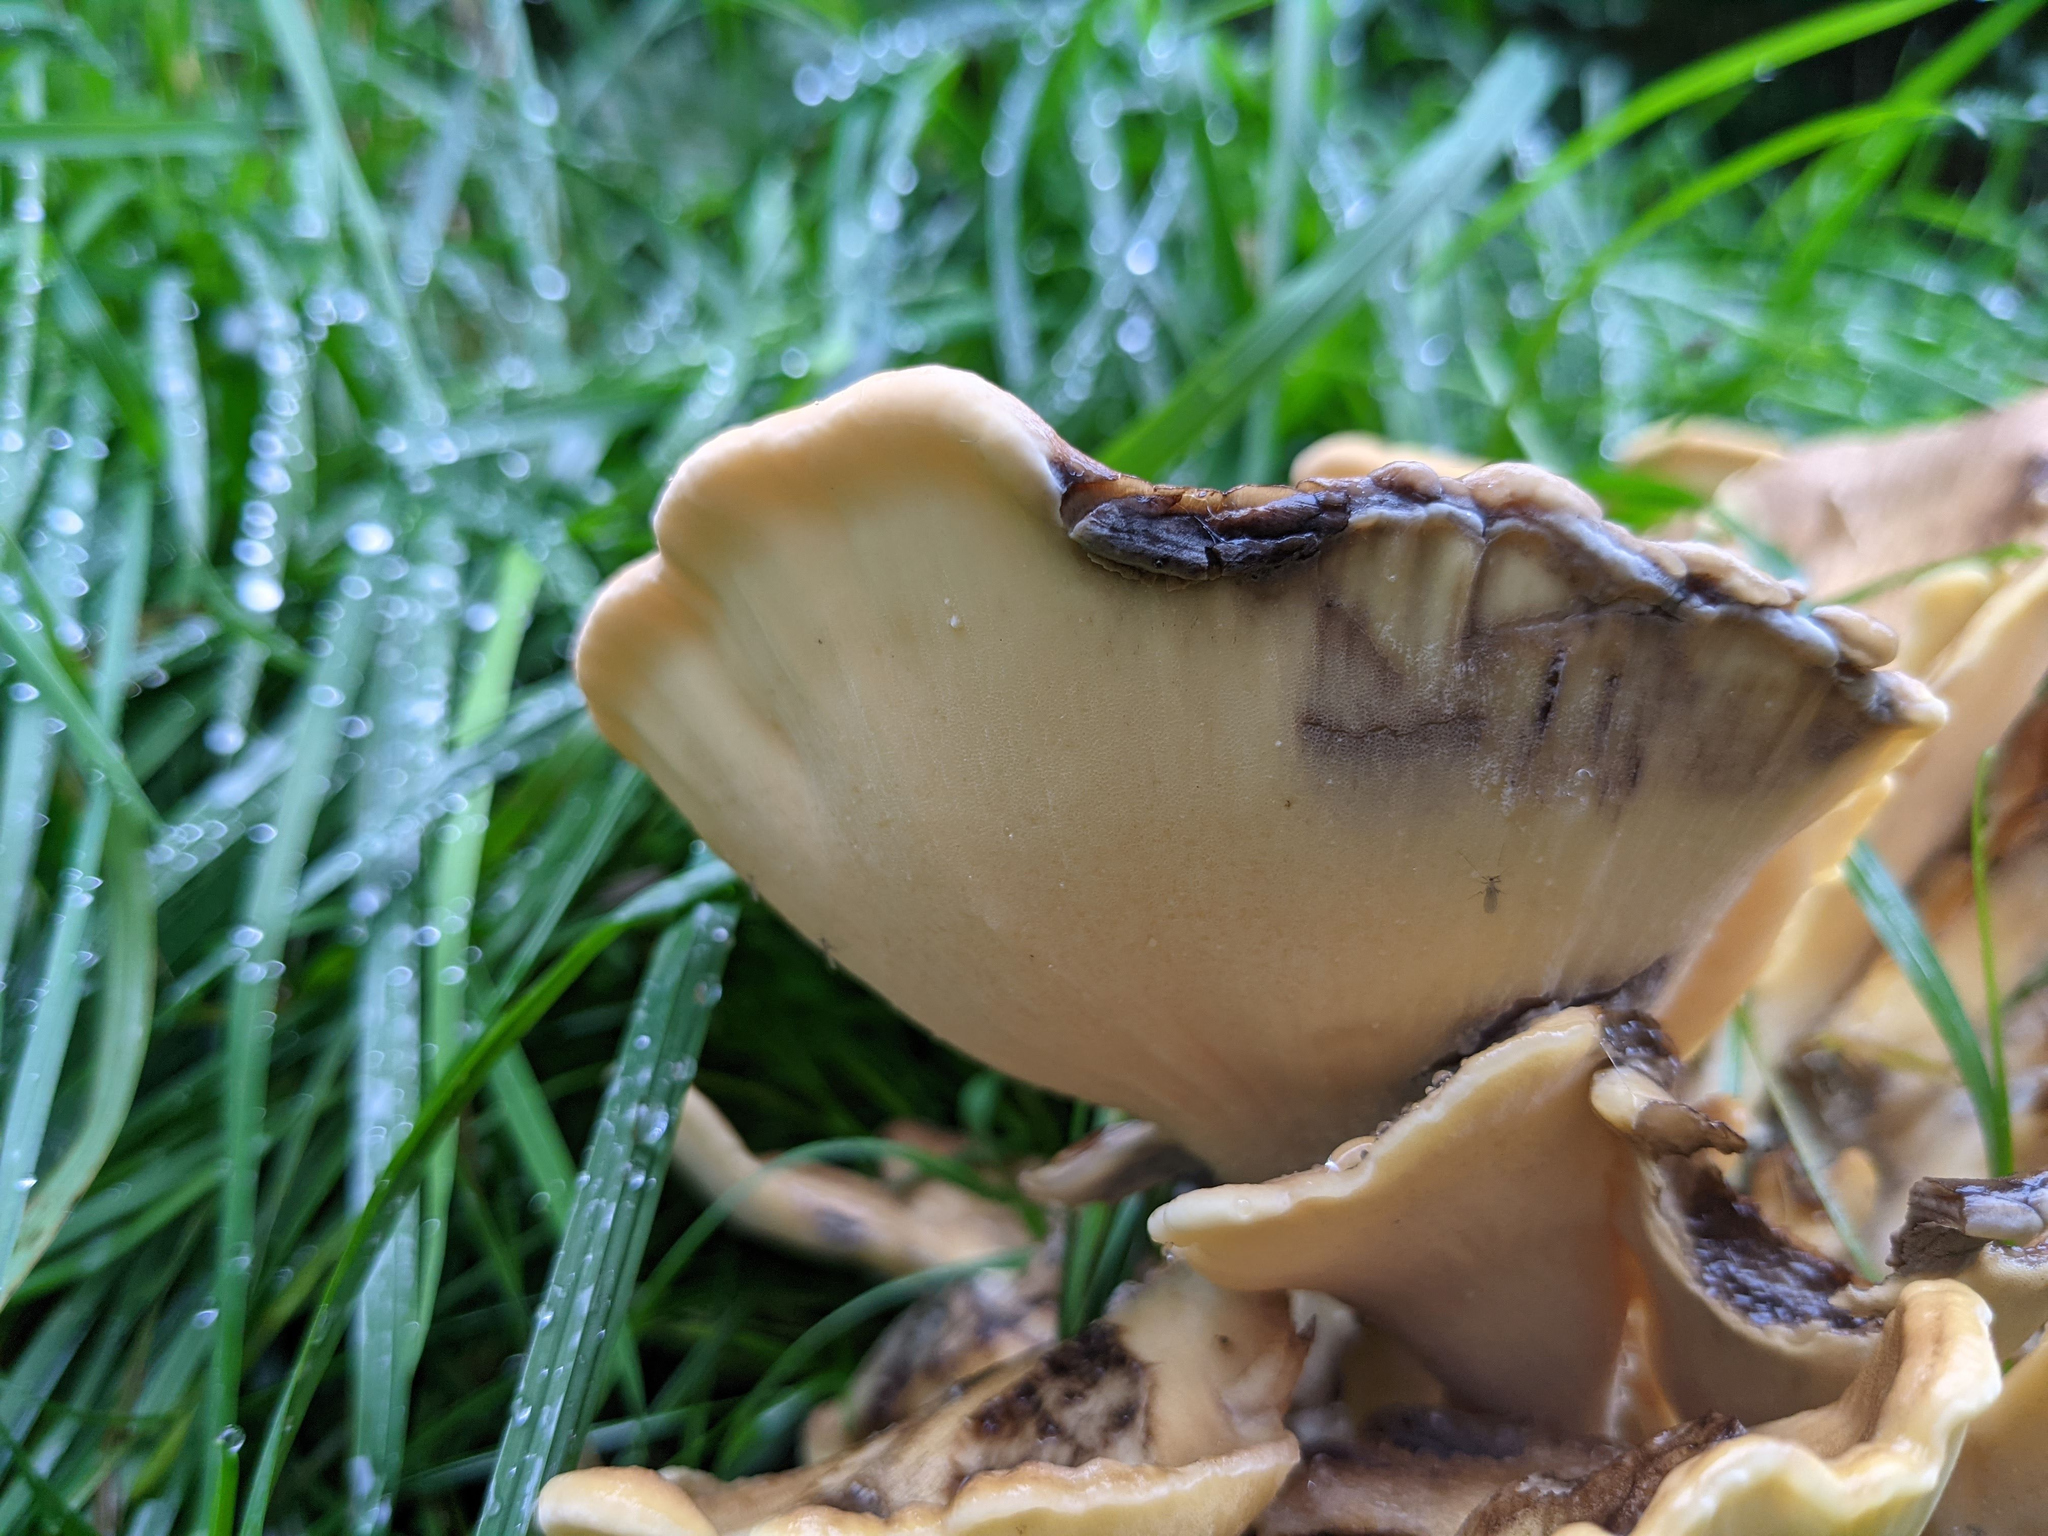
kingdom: Fungi
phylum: Basidiomycota
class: Agaricomycetes
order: Polyporales
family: Meripilaceae
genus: Meripilus
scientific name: Meripilus giganteus
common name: Giant polypore
